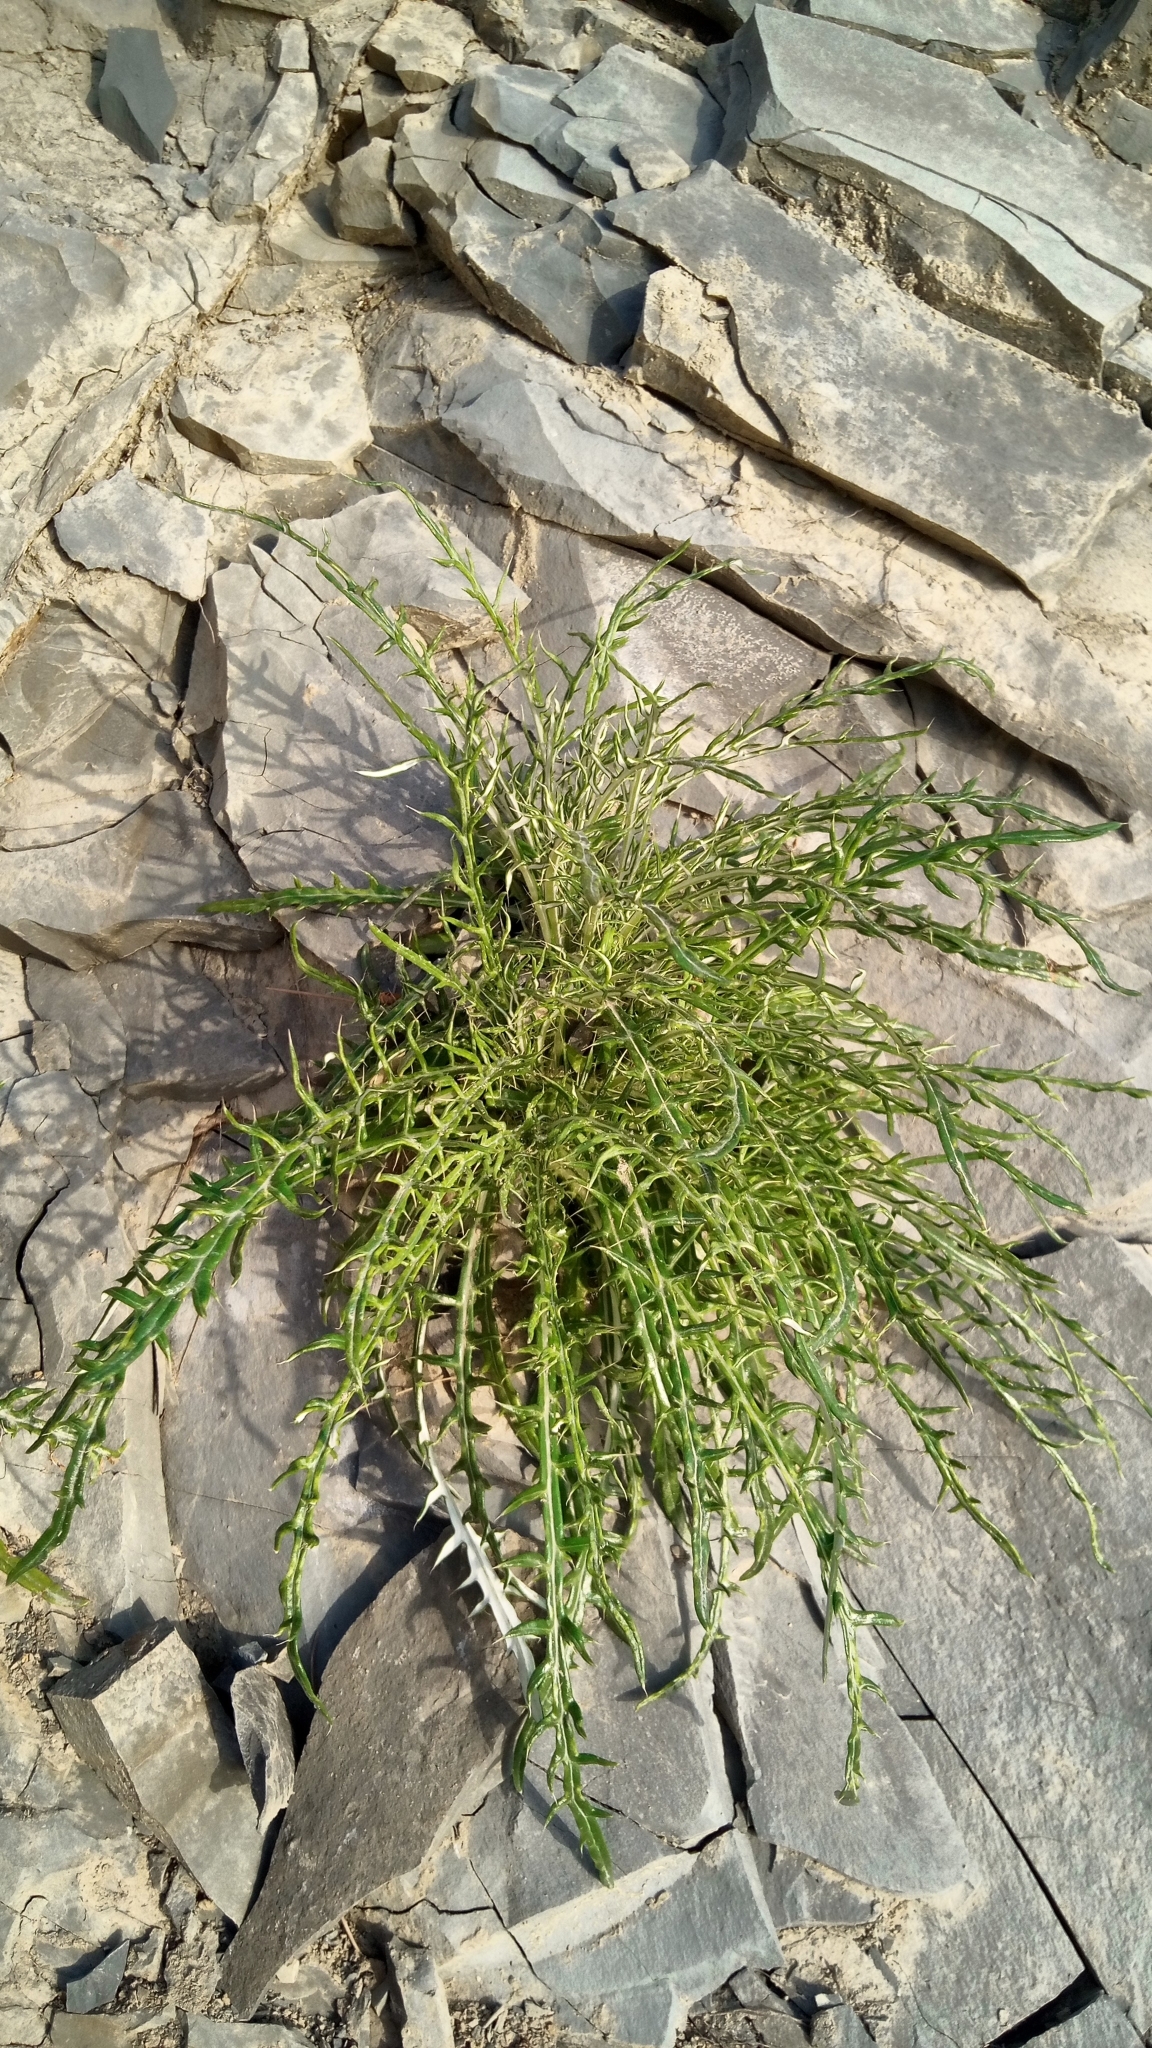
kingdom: Plantae
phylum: Tracheophyta
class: Magnoliopsida
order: Asterales
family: Asteraceae
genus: Ptilostemon
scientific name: Ptilostemon echinocephalus
